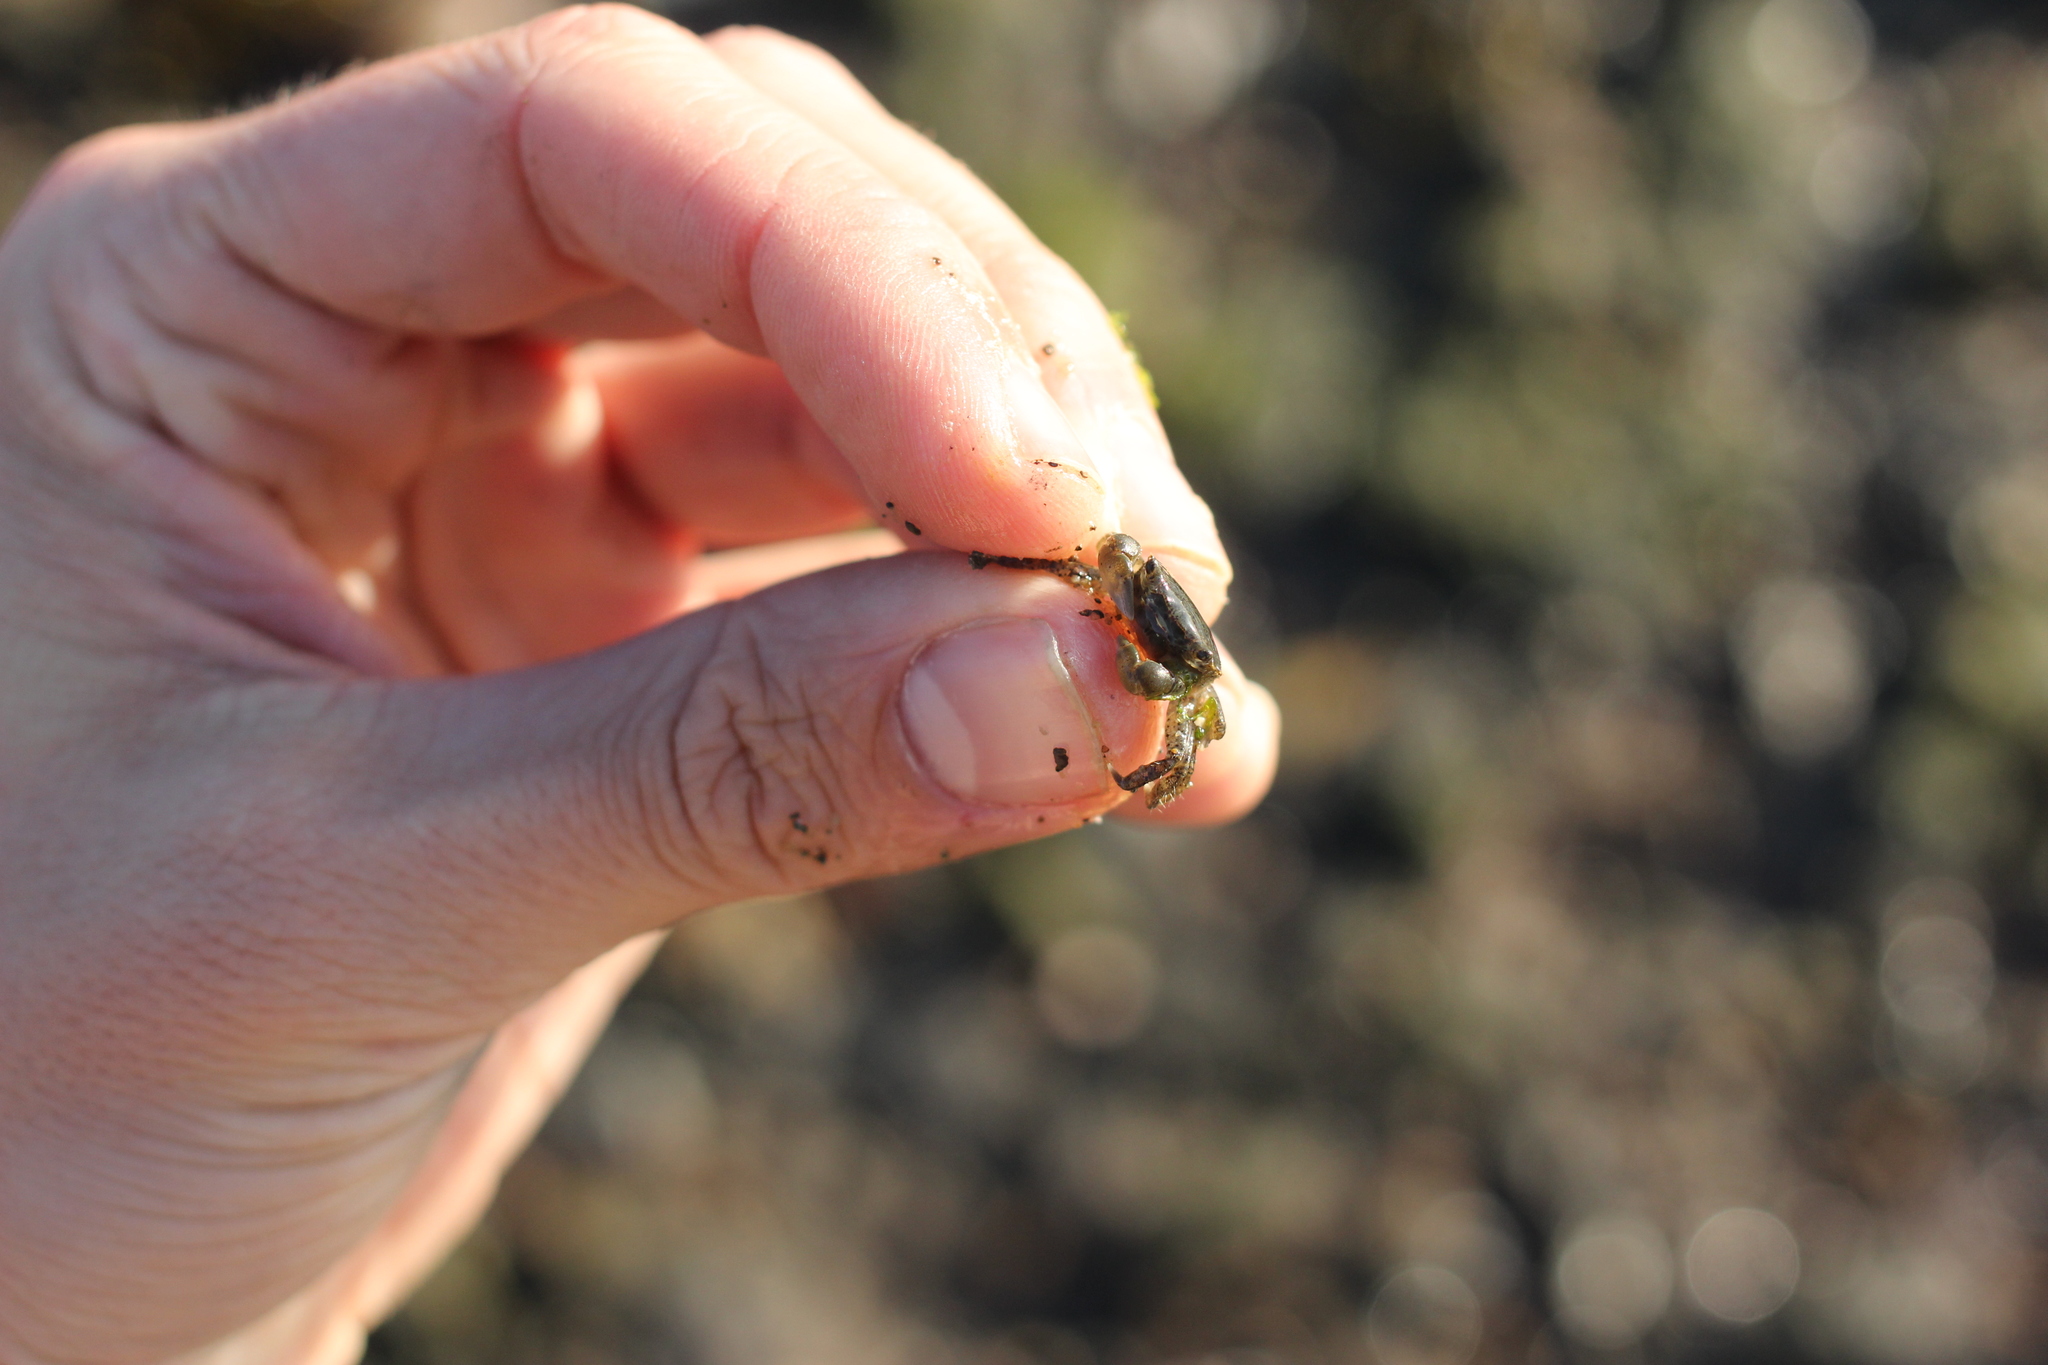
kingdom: Animalia
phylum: Arthropoda
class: Malacostraca
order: Decapoda
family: Varunidae
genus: Hemigrapsus
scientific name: Hemigrapsus oregonensis
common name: Yellow shore crab
